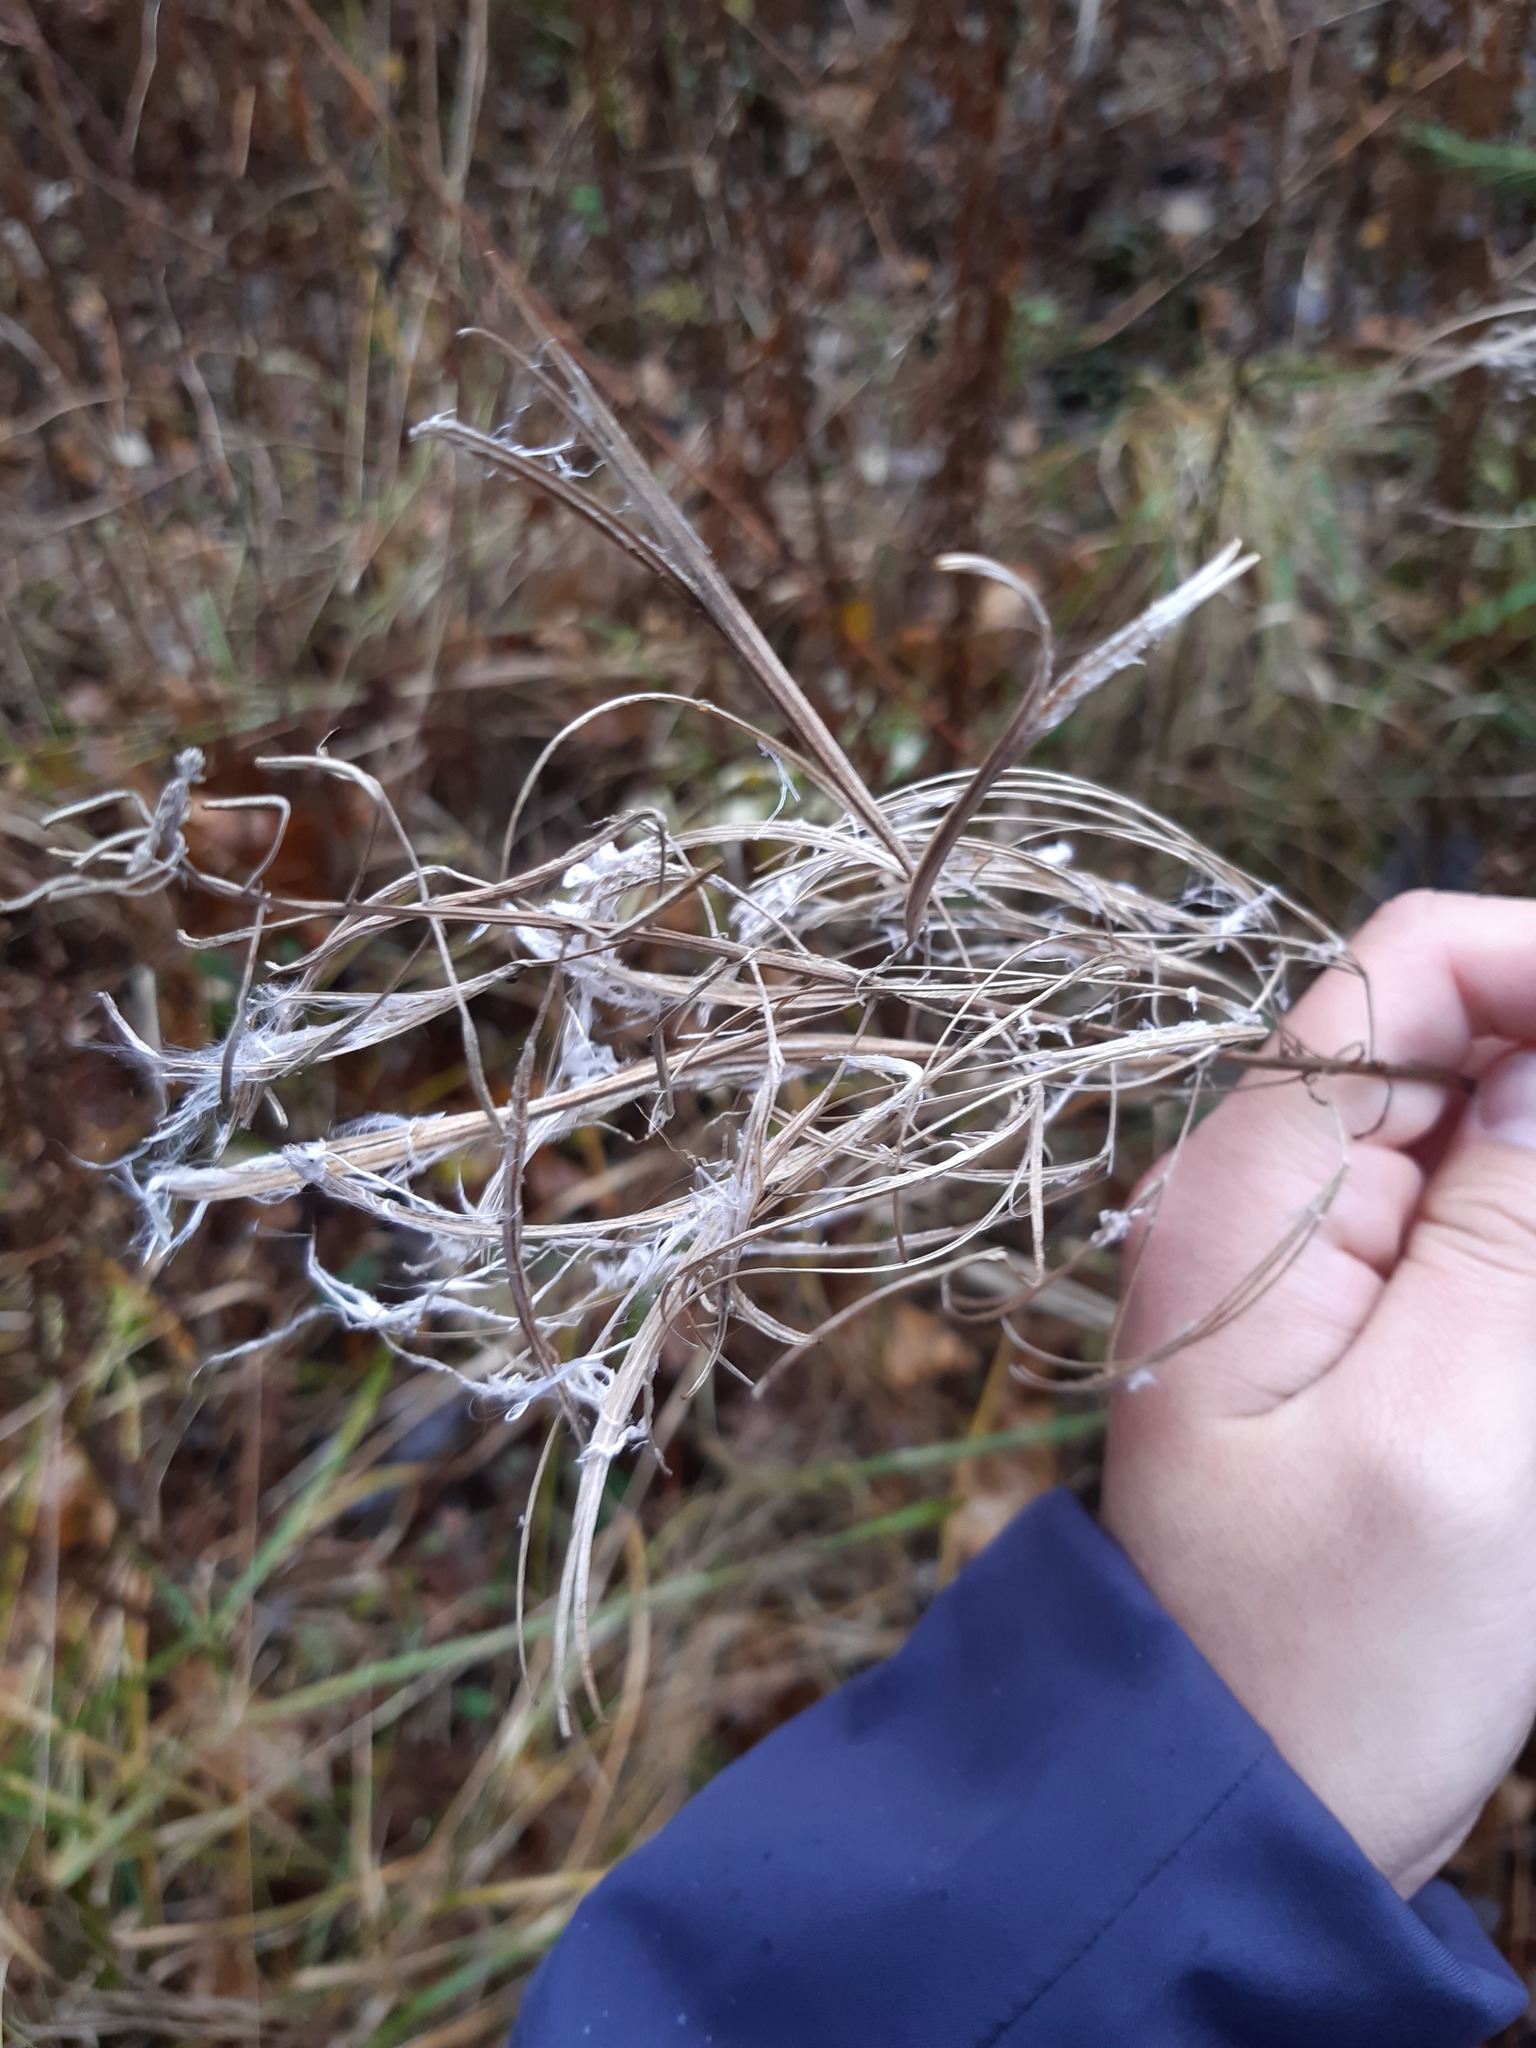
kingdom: Plantae
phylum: Tracheophyta
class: Magnoliopsida
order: Myrtales
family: Onagraceae
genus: Chamaenerion
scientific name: Chamaenerion angustifolium
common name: Fireweed
